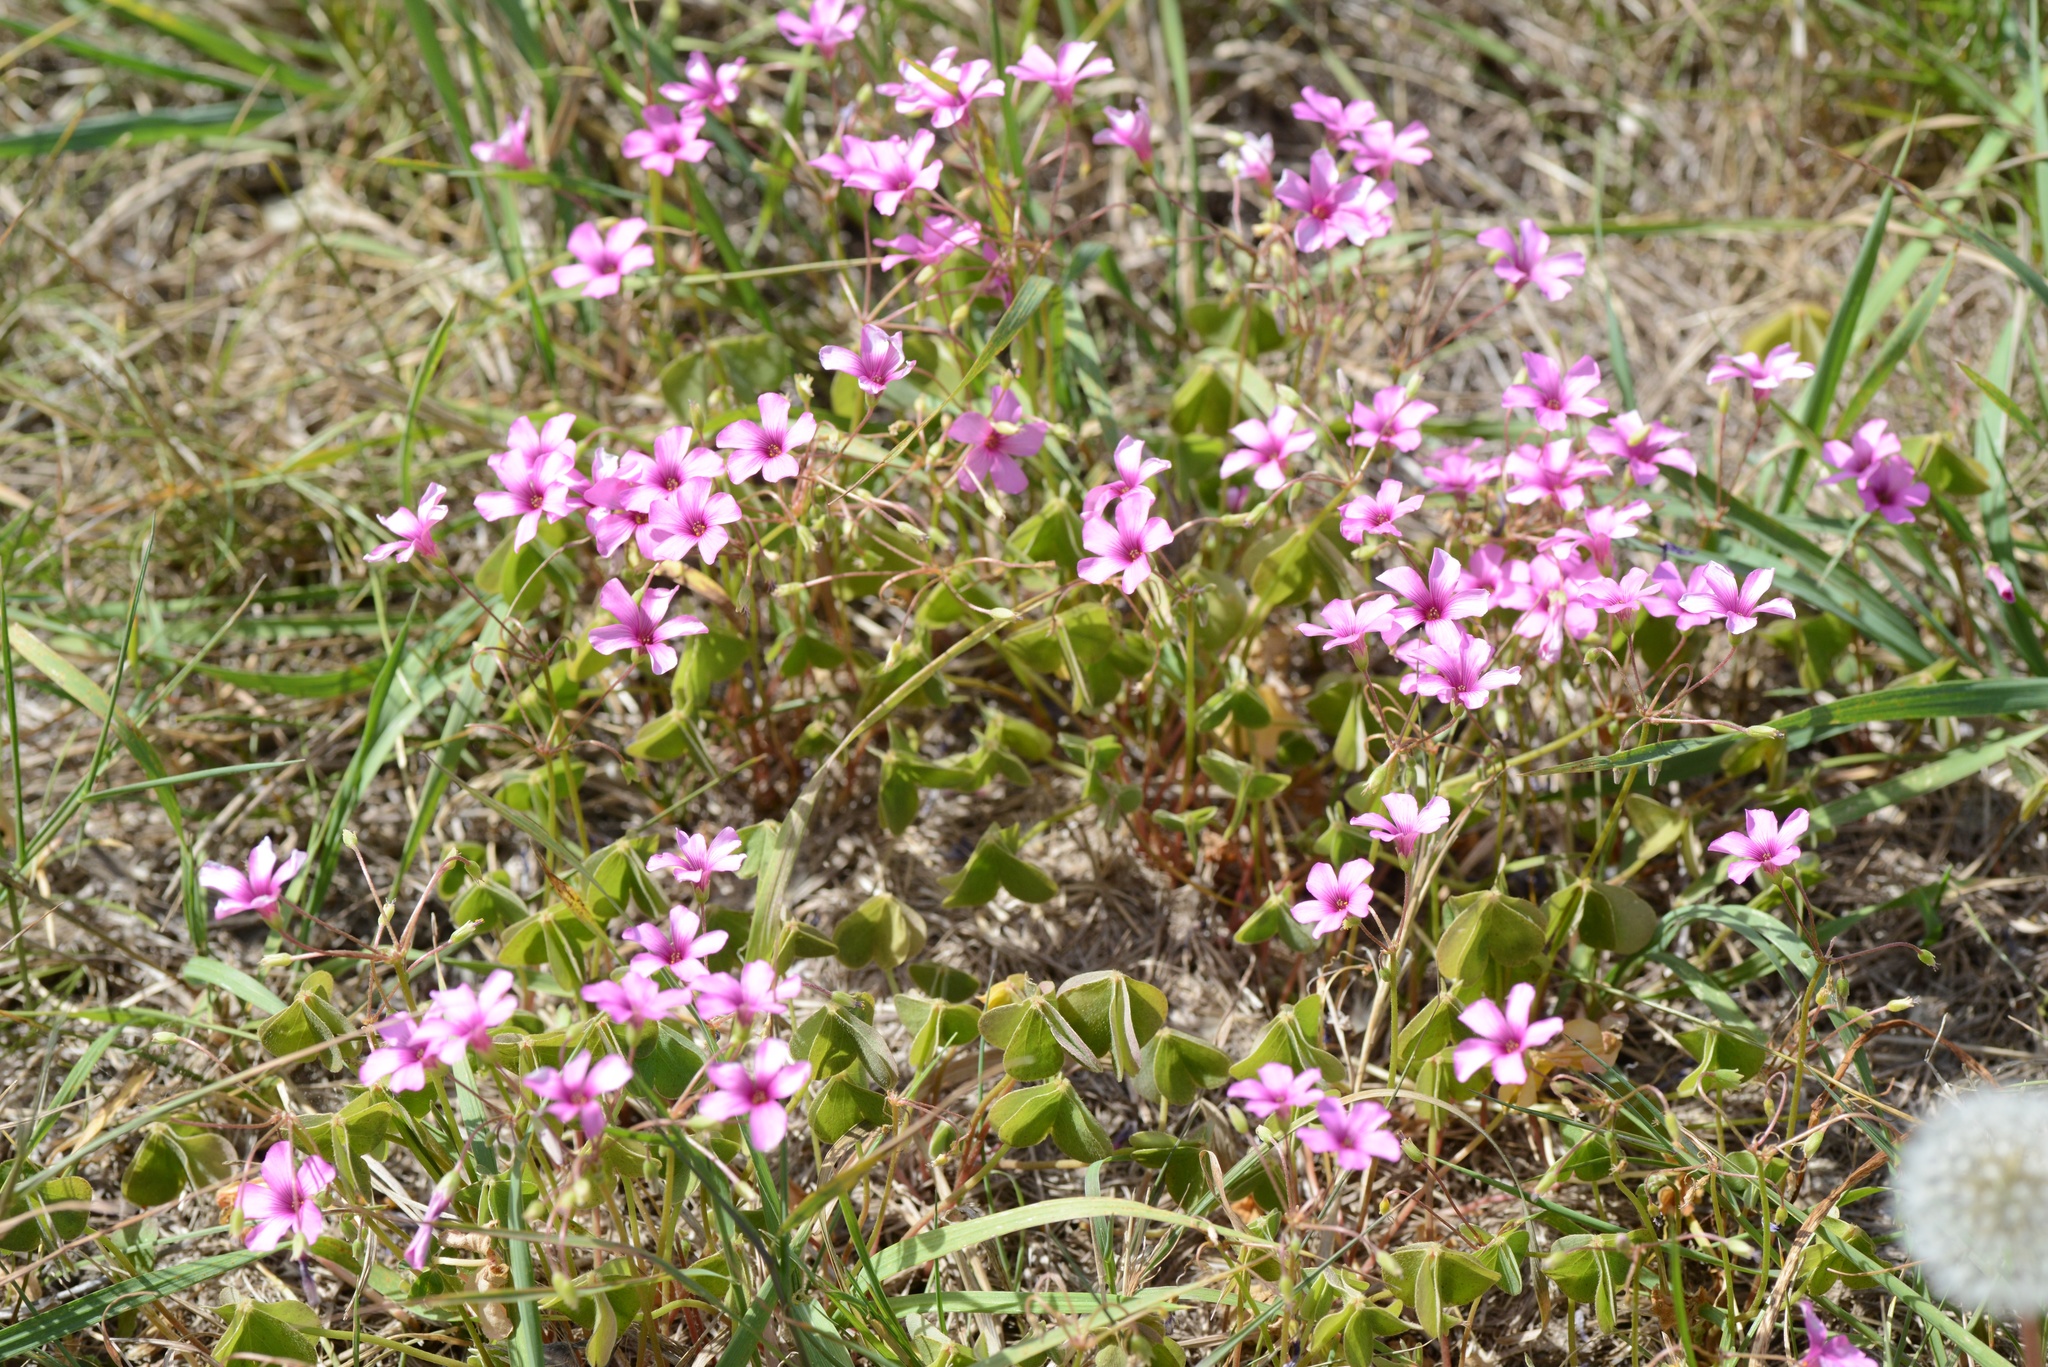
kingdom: Plantae
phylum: Tracheophyta
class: Magnoliopsida
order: Oxalidales
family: Oxalidaceae
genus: Oxalis
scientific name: Oxalis articulata
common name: Pink-sorrel
